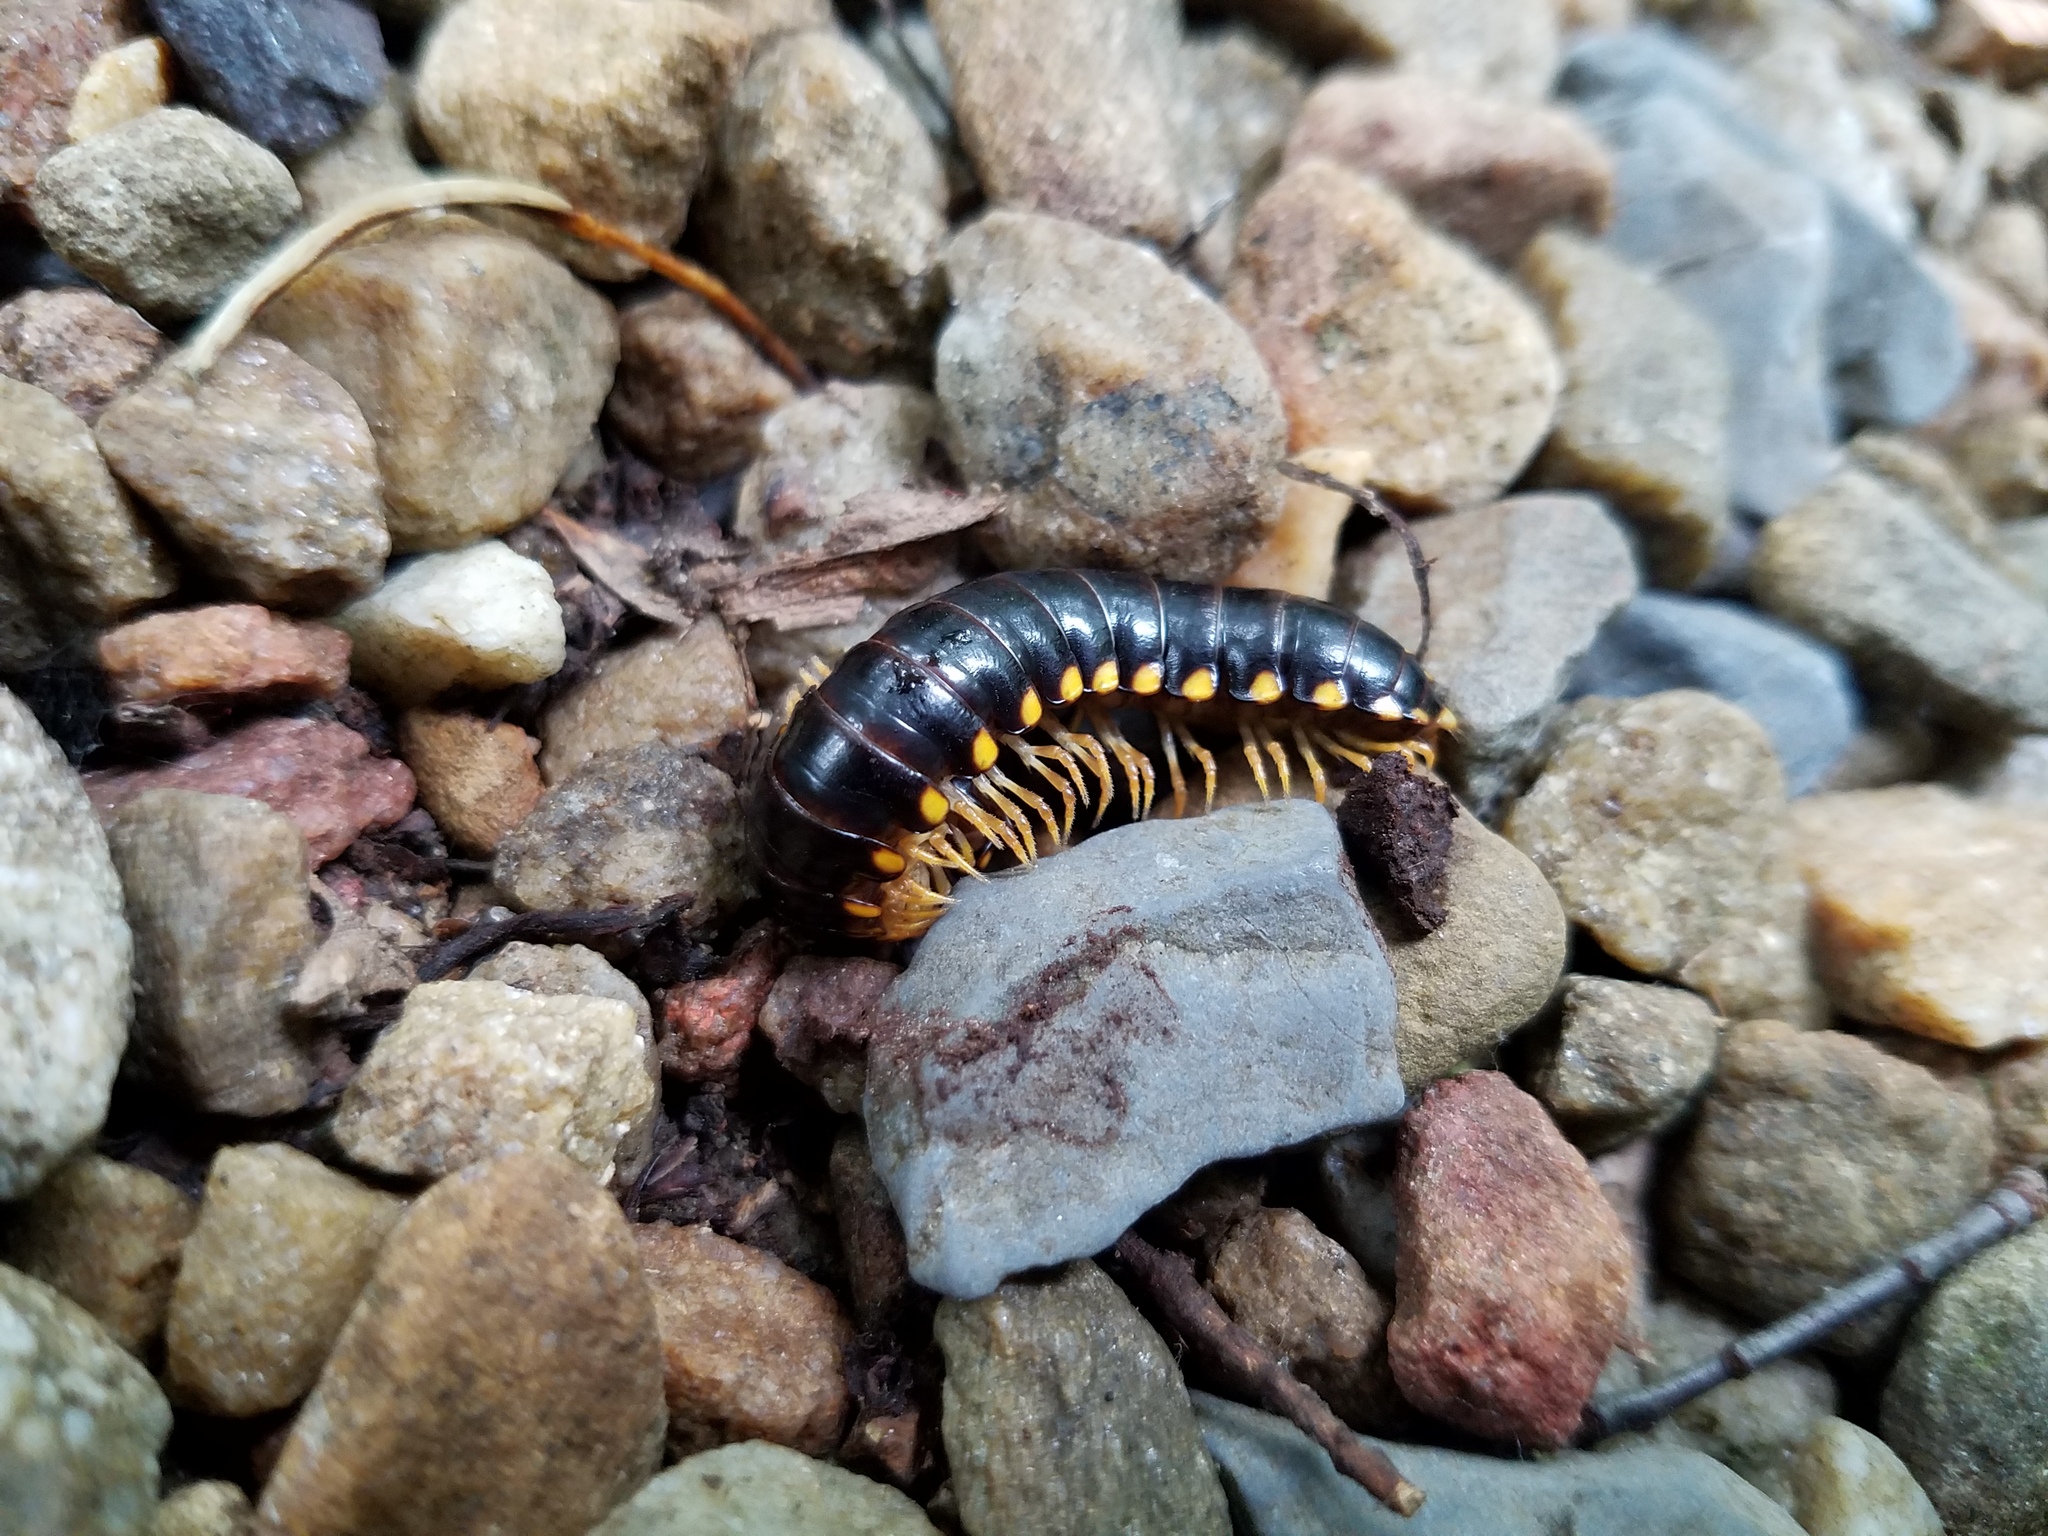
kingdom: Animalia
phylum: Arthropoda
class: Diplopoda
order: Polydesmida
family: Xystodesmidae
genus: Dixioria
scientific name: Dixioria pela
